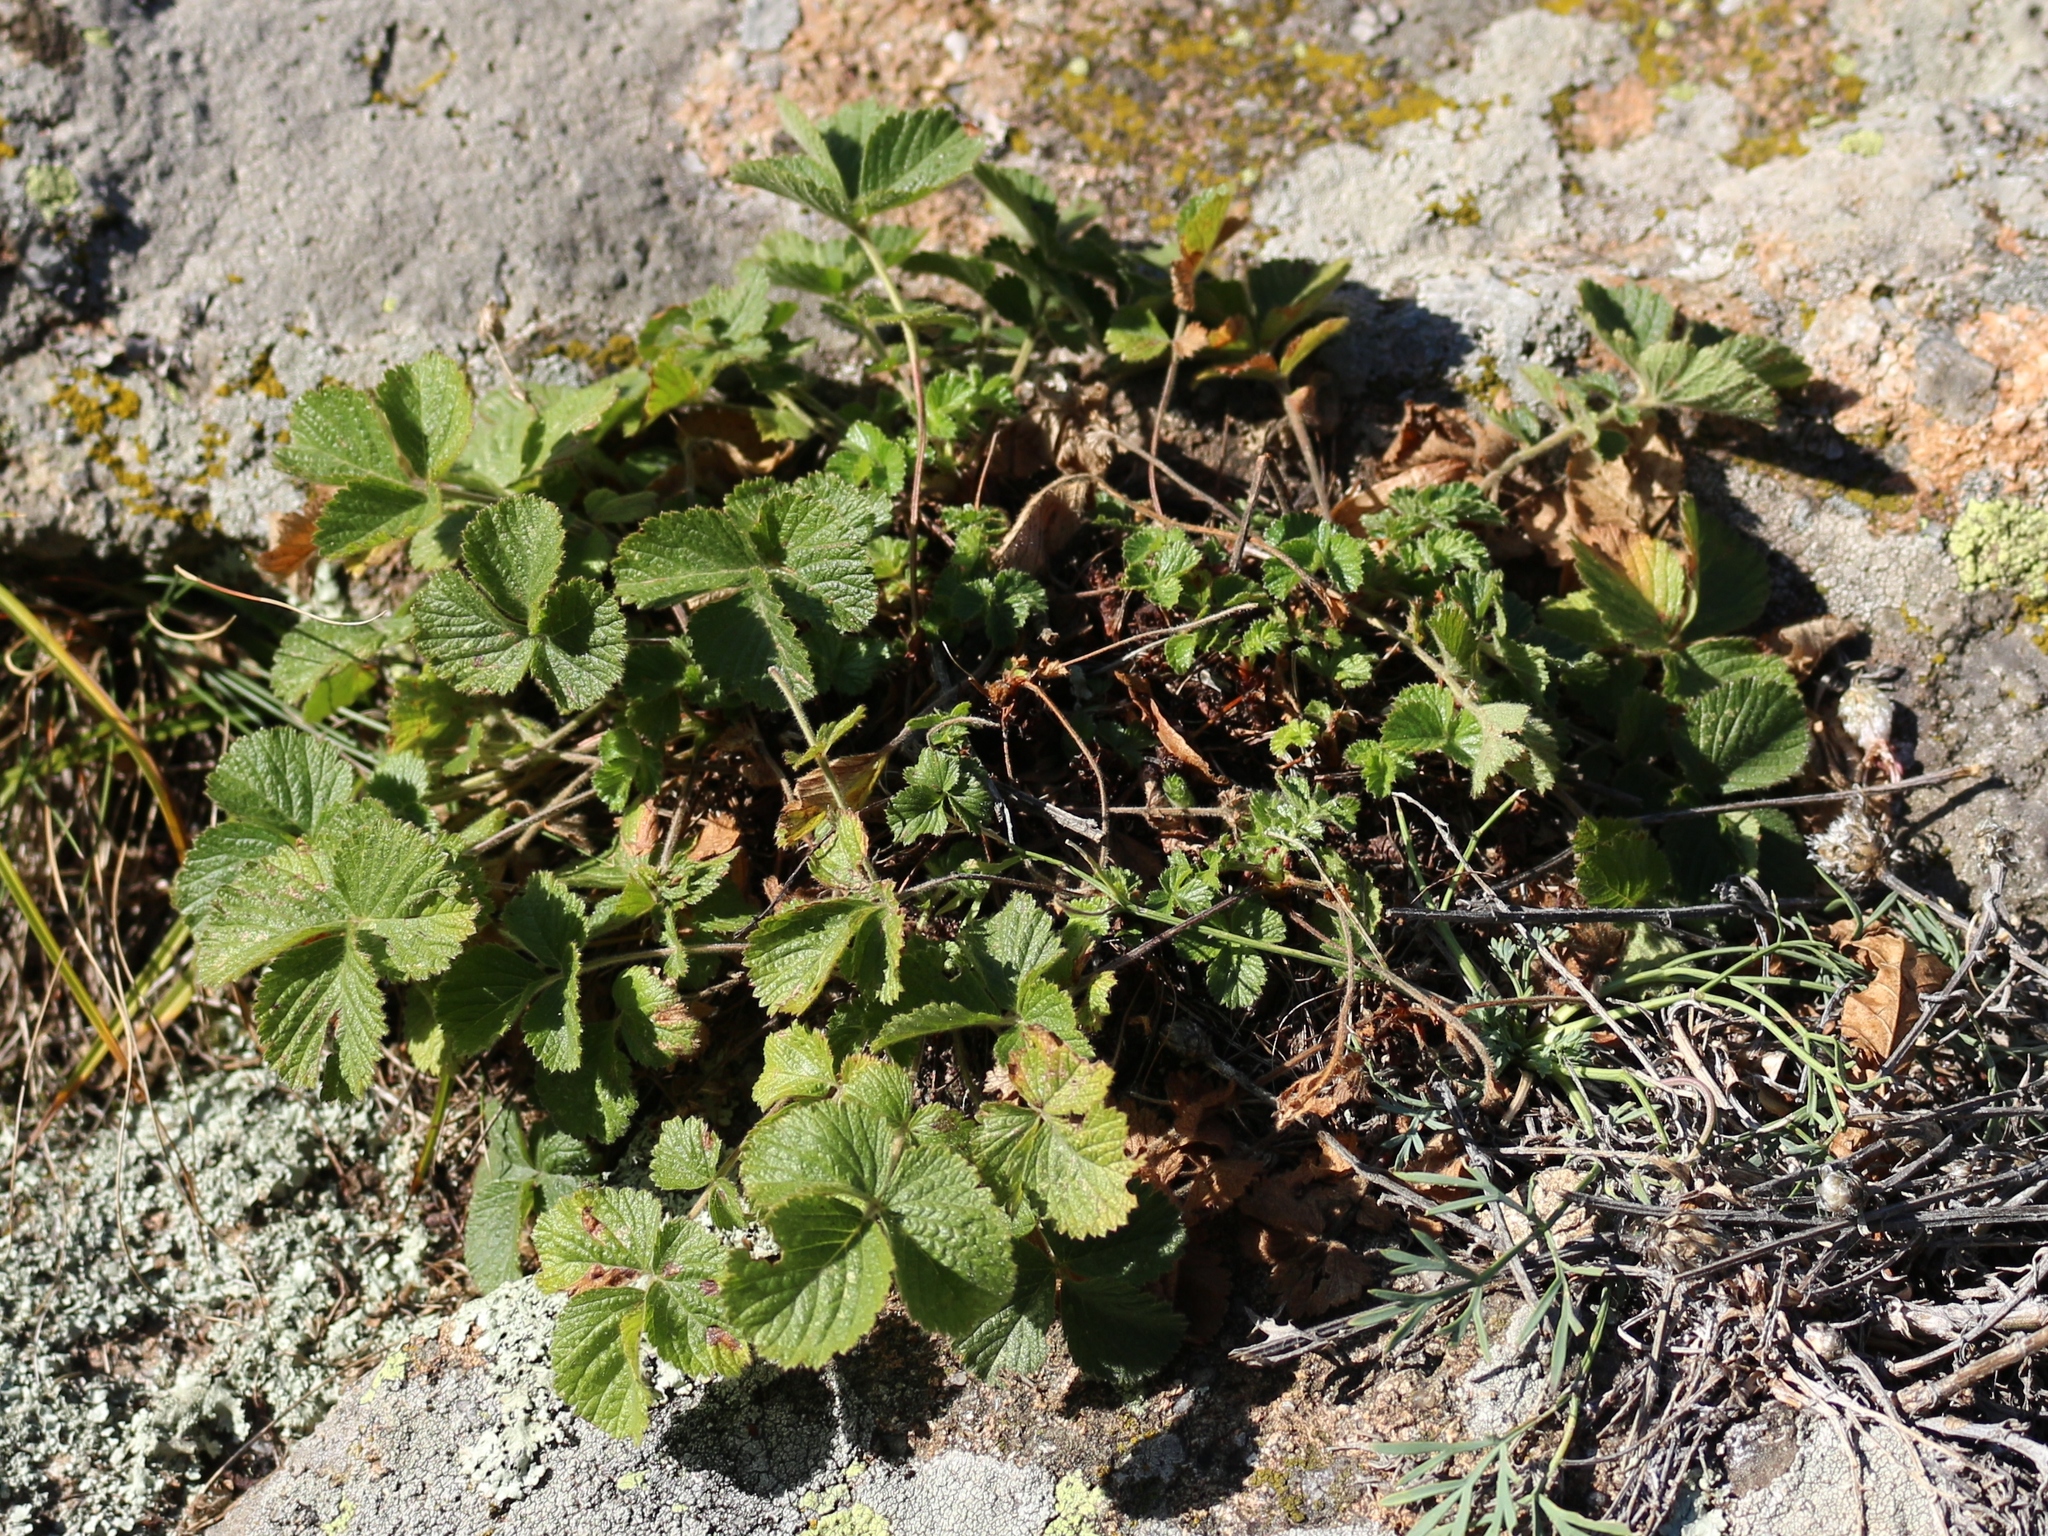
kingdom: Plantae
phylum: Tracheophyta
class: Magnoliopsida
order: Rosales
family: Rosaceae
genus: Drymocallis
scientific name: Drymocallis rupestris
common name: Rock cinquefoil
